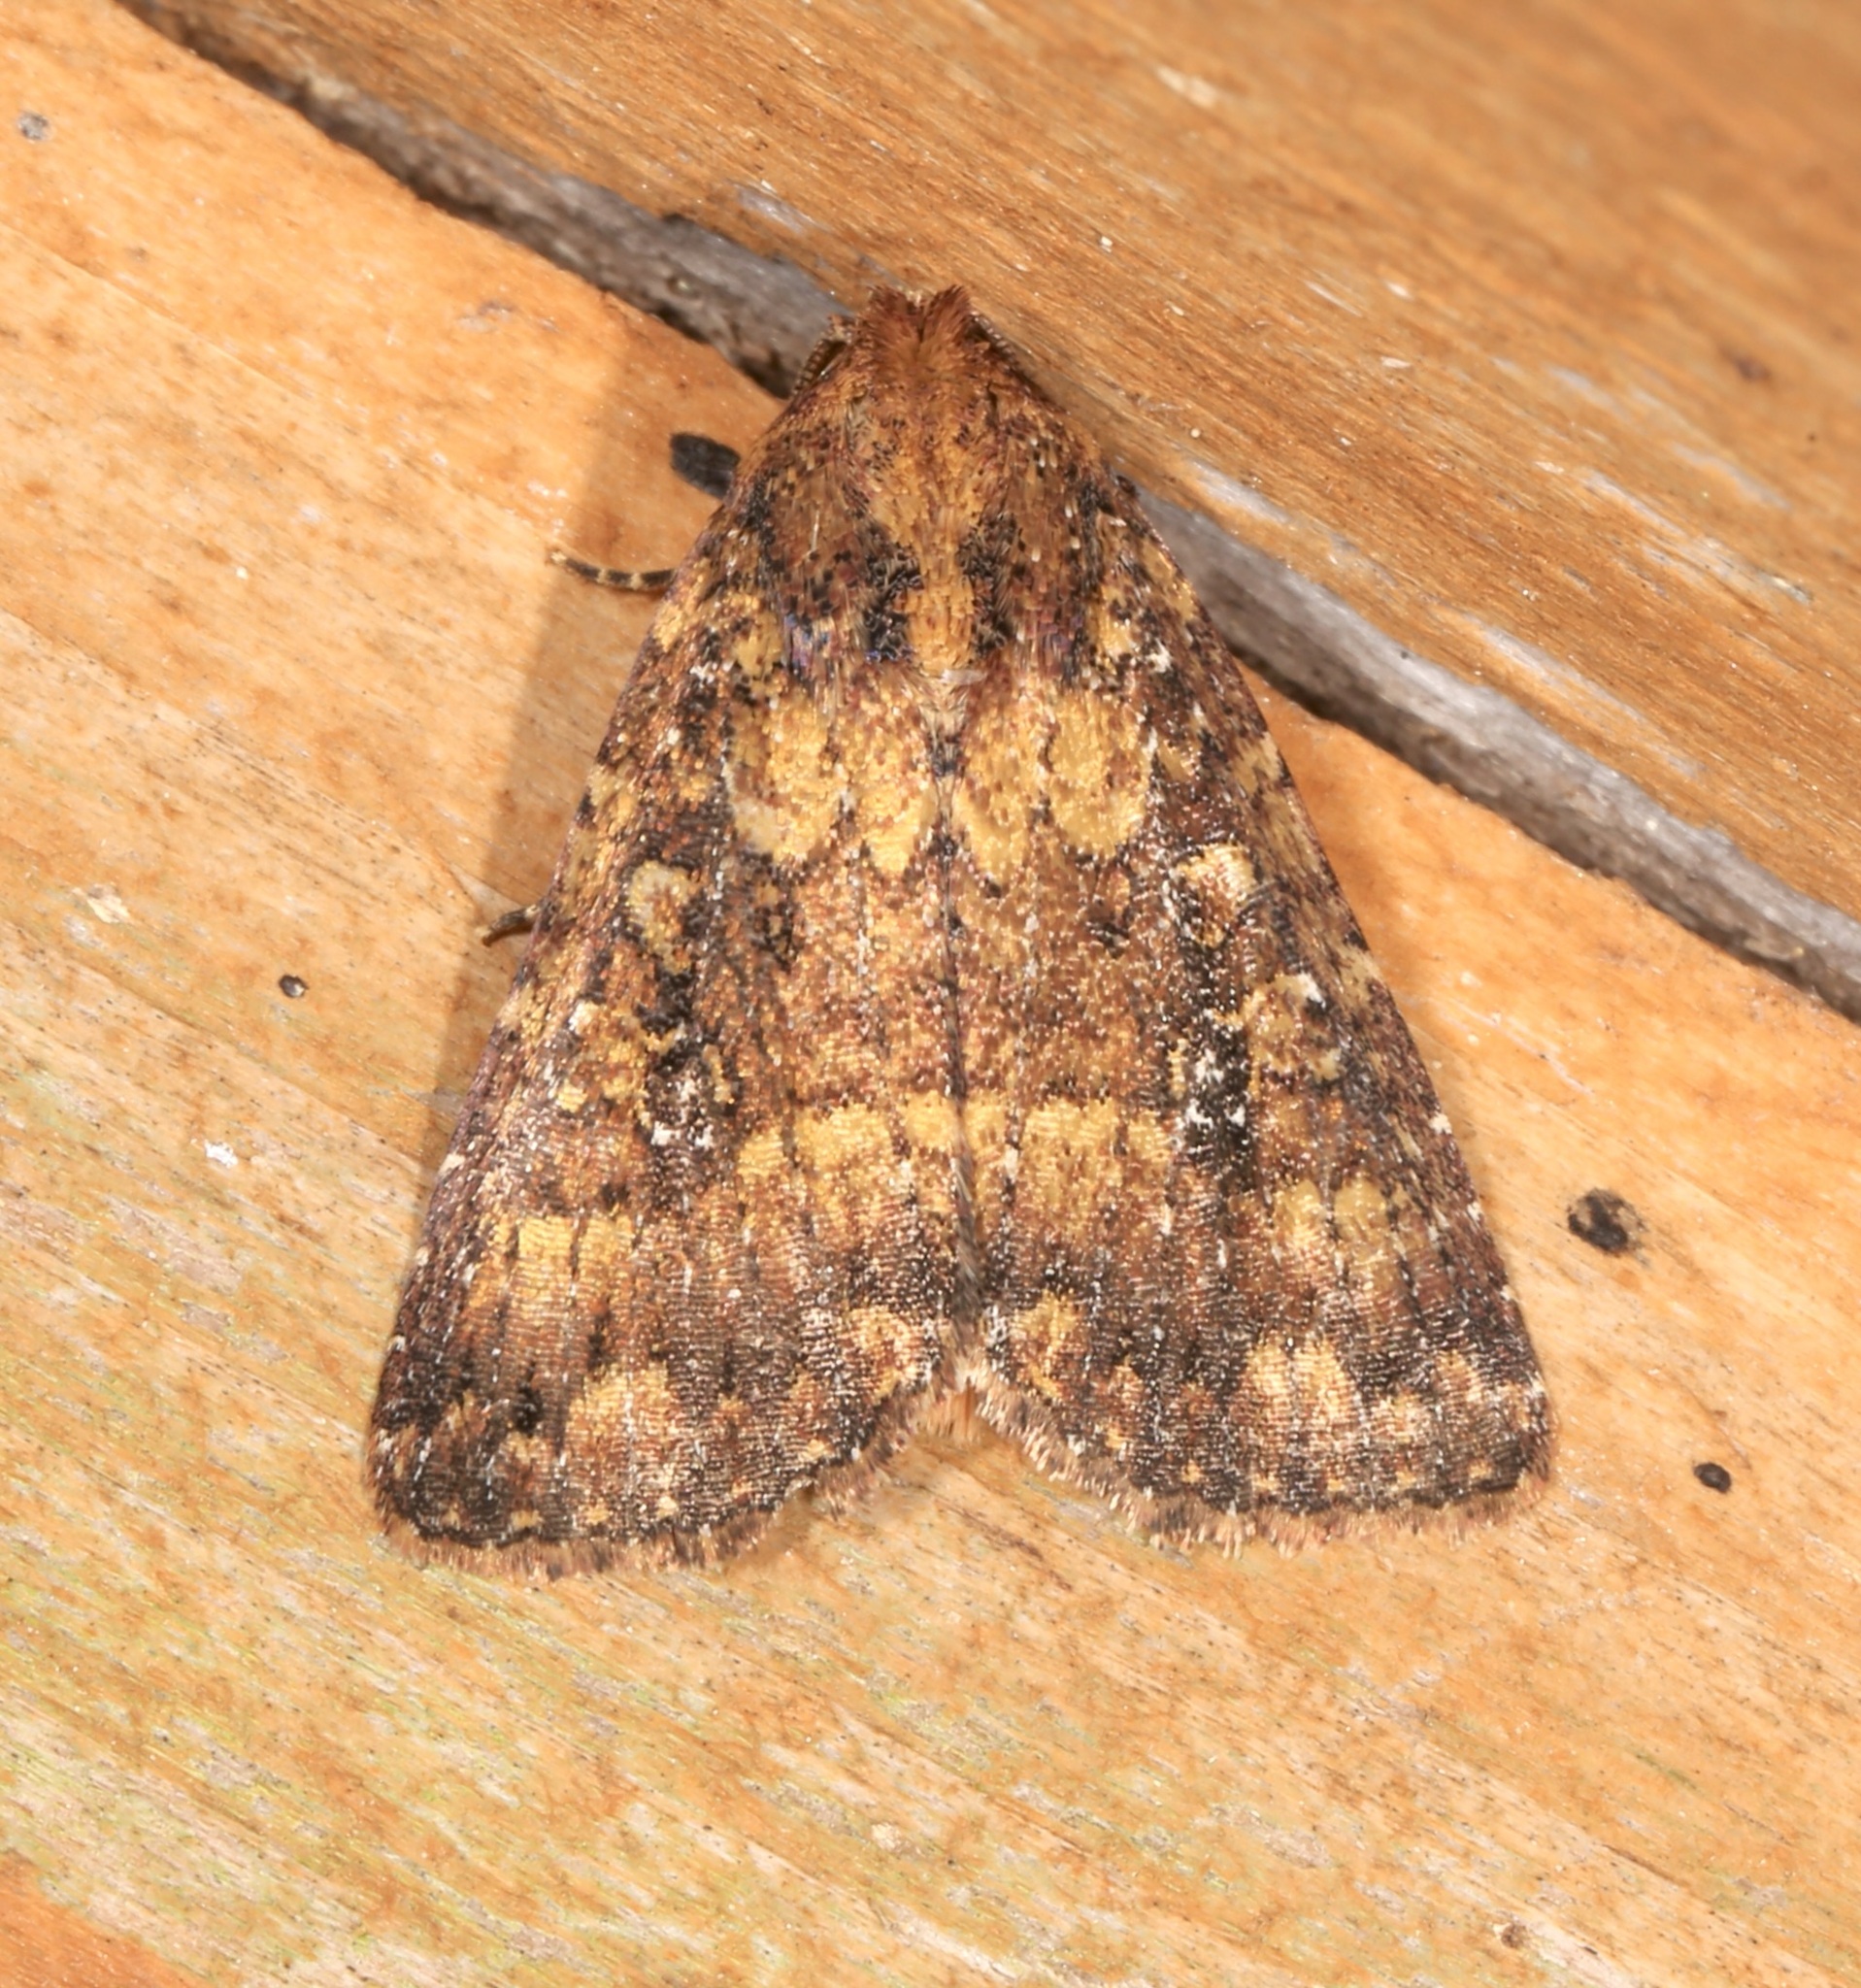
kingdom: Animalia
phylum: Arthropoda
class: Insecta
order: Lepidoptera
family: Noctuidae
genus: Condica
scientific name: Condica mobilis
